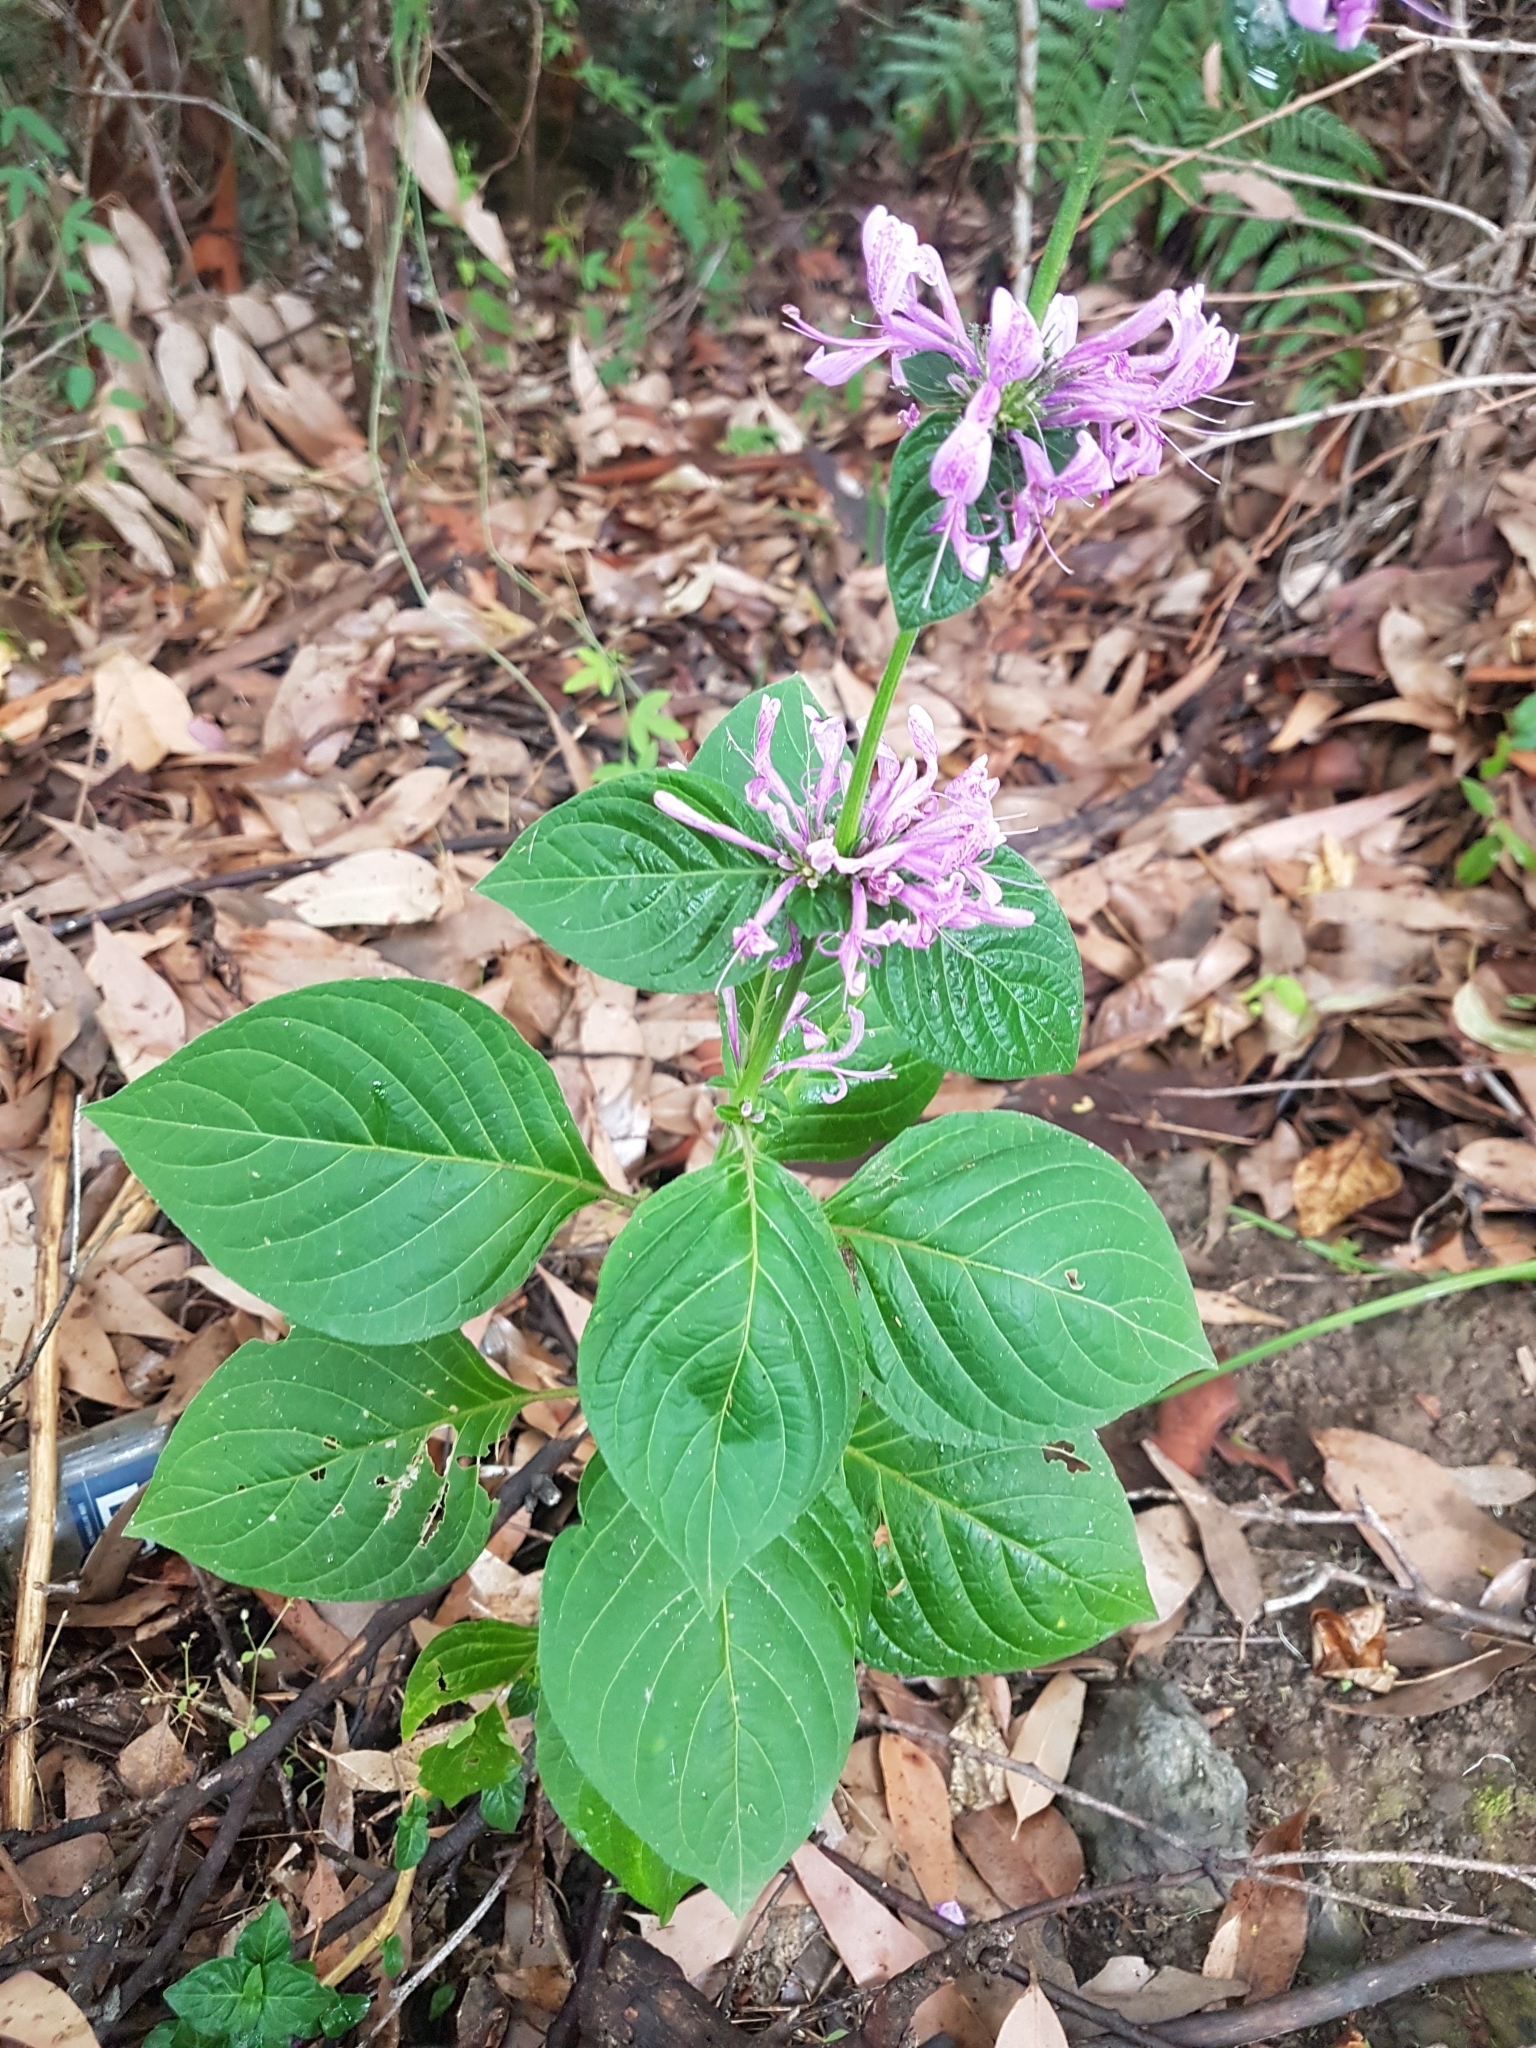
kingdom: Plantae
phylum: Tracheophyta
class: Magnoliopsida
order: Lamiales
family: Acanthaceae
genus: Hypoestes
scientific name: Hypoestes aristata
